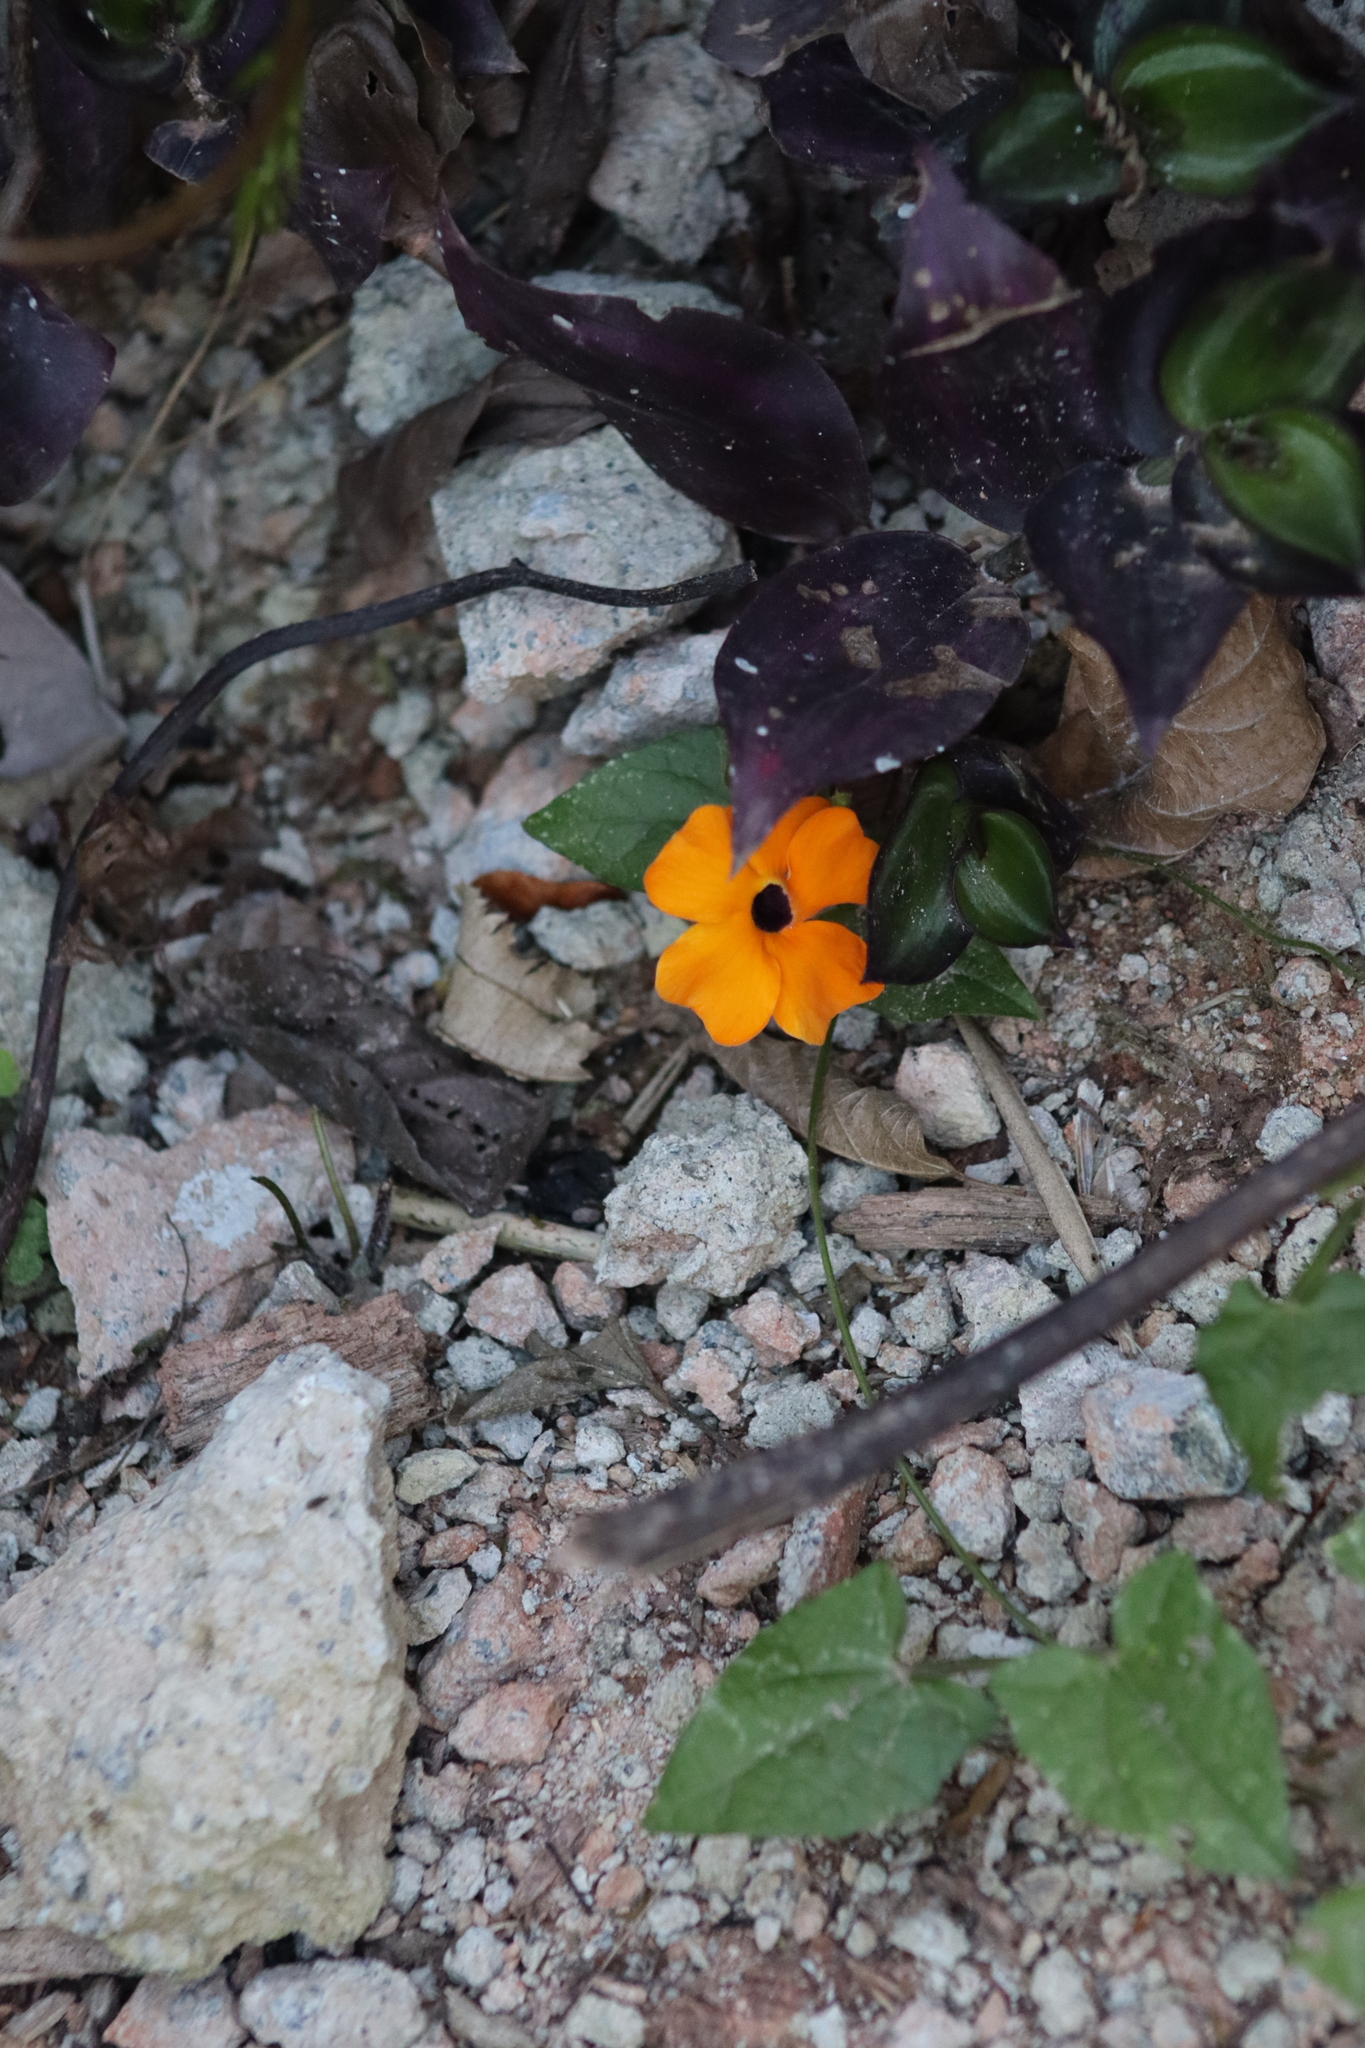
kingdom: Plantae
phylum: Tracheophyta
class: Magnoliopsida
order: Lamiales
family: Acanthaceae
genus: Thunbergia
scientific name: Thunbergia alata
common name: Blackeyed susan vine
